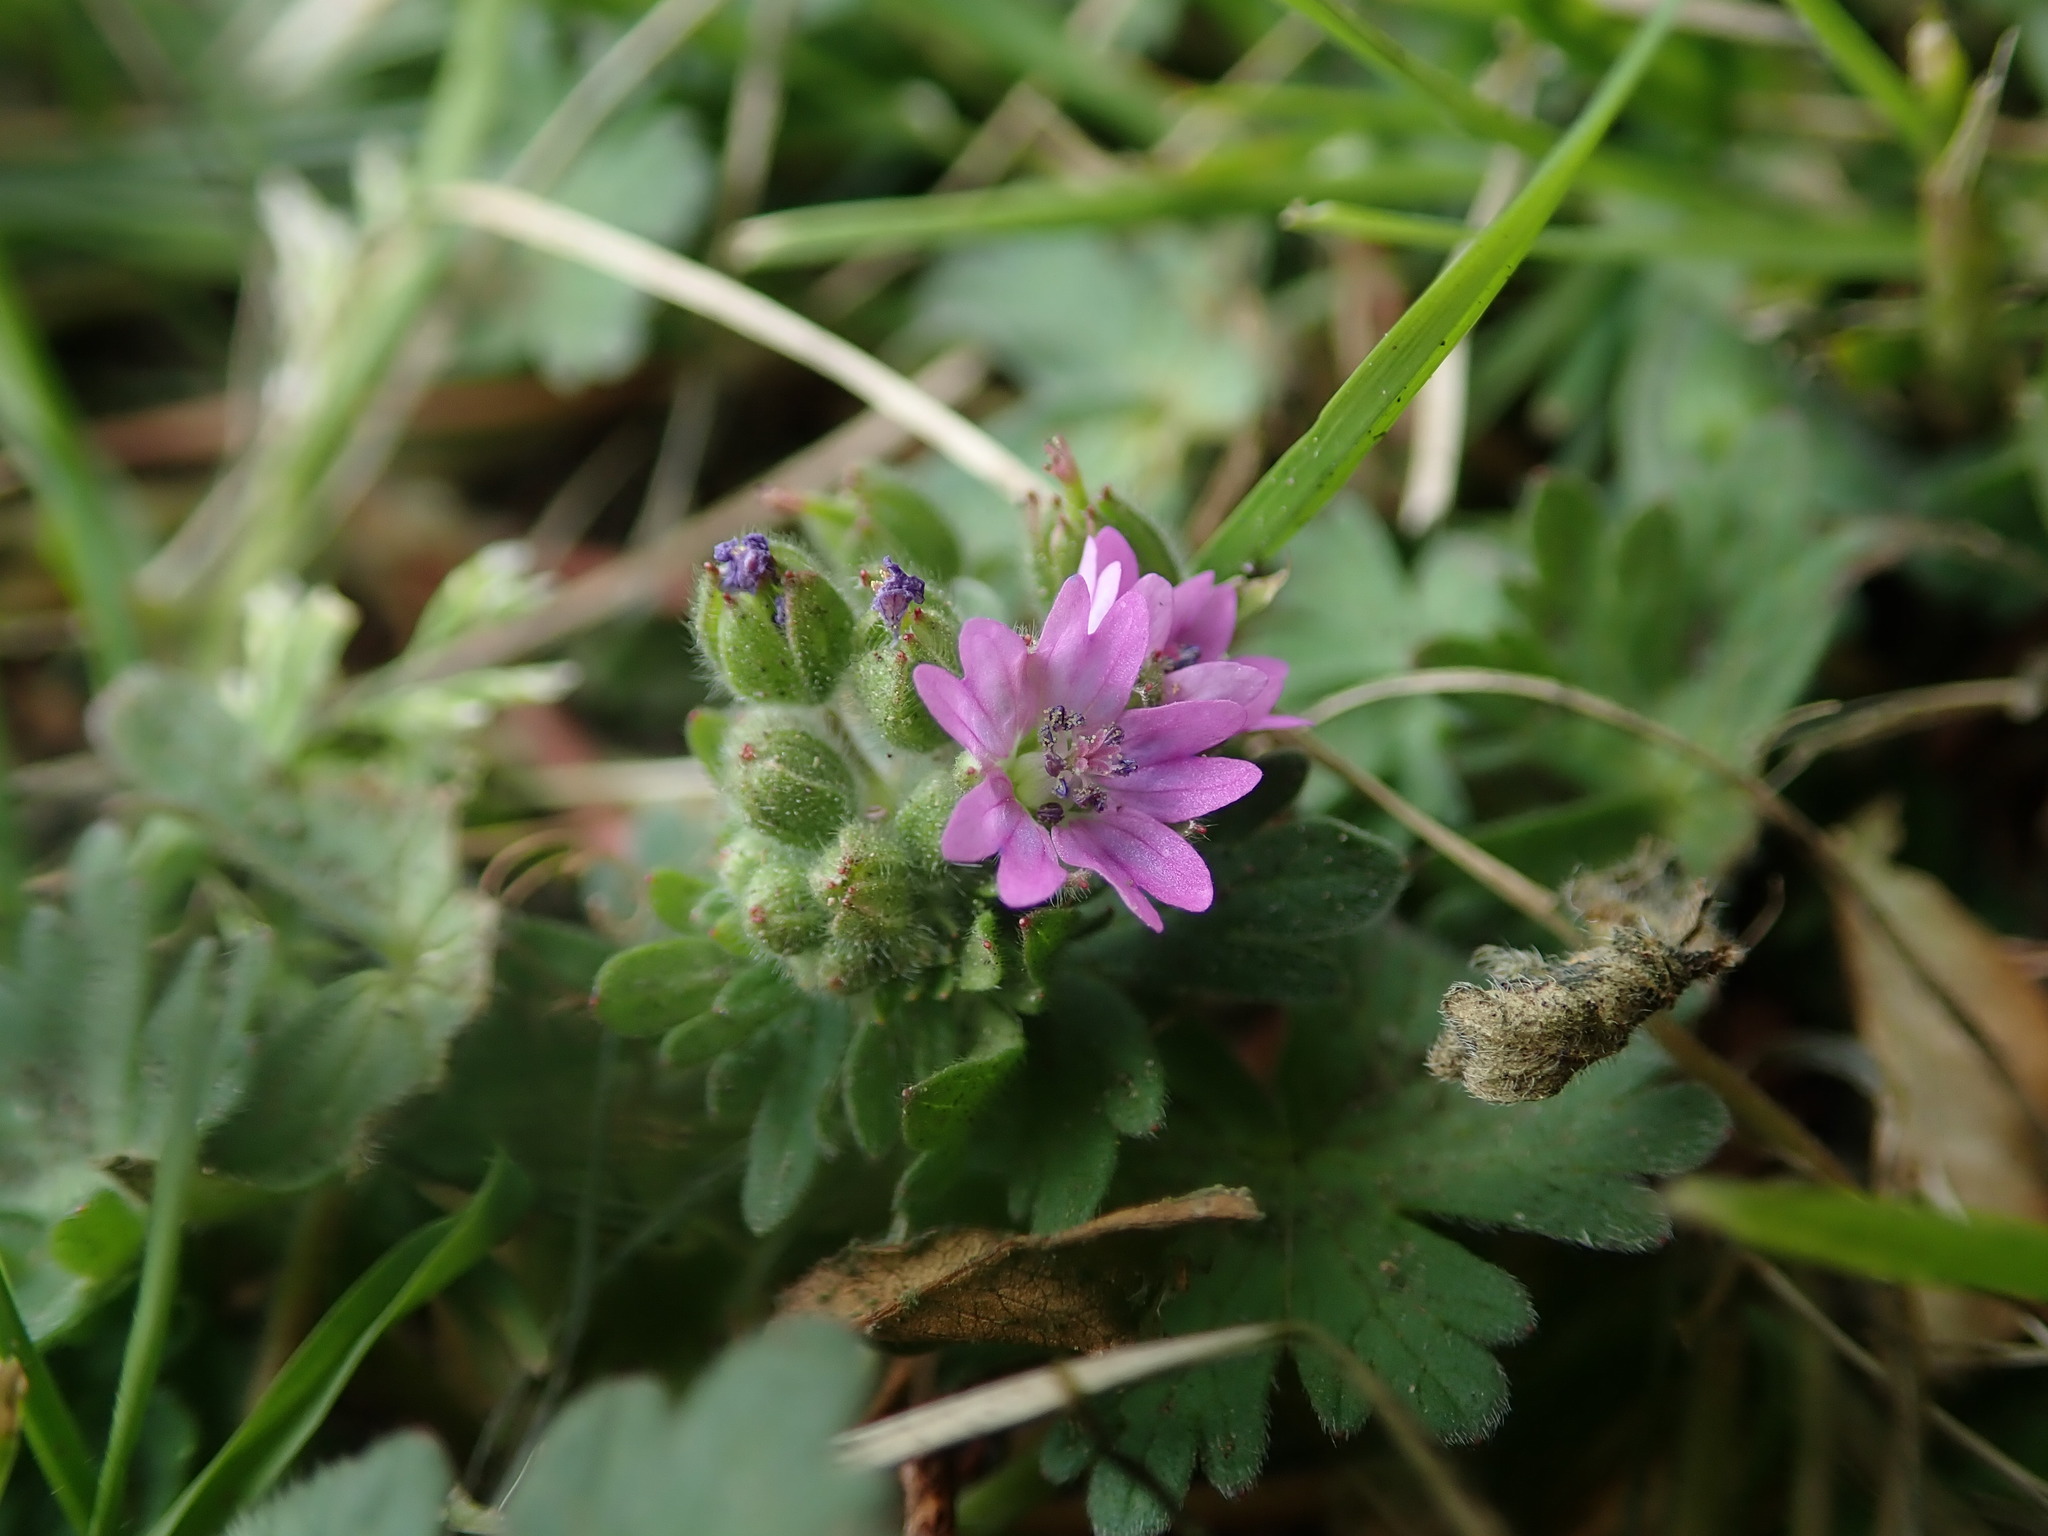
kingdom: Plantae
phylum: Tracheophyta
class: Magnoliopsida
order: Geraniales
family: Geraniaceae
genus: Geranium
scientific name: Geranium molle
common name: Dove's-foot crane's-bill
